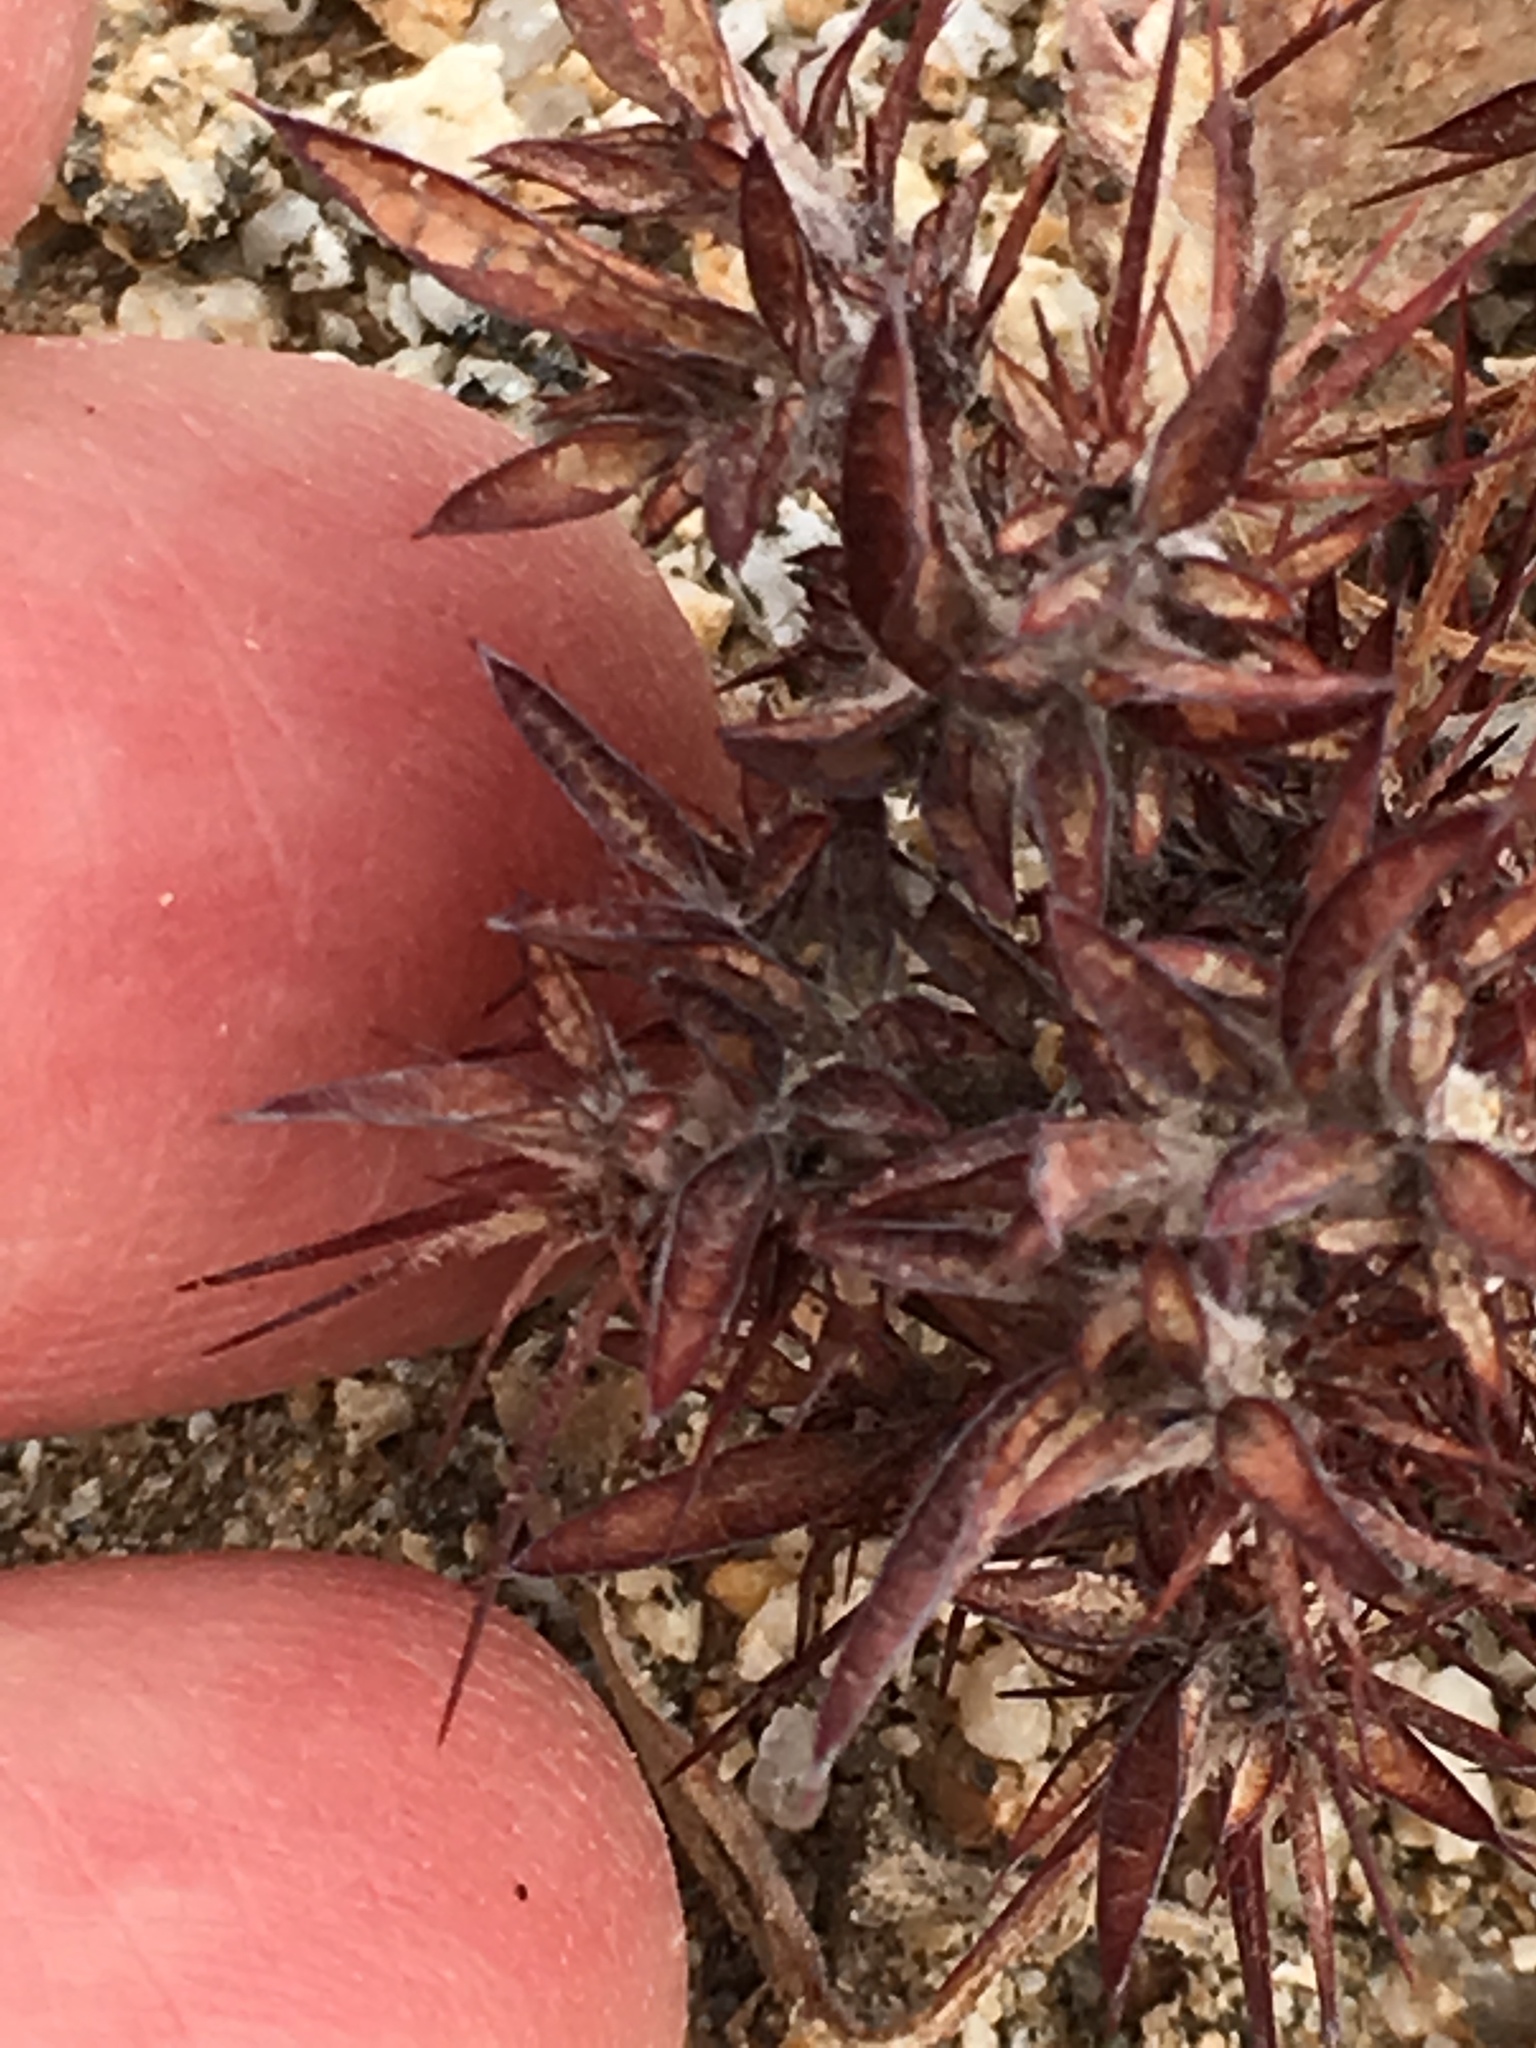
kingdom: Plantae
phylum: Tracheophyta
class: Magnoliopsida
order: Caryophyllales
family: Polygonaceae
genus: Chorizanthe
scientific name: Chorizanthe rigida
